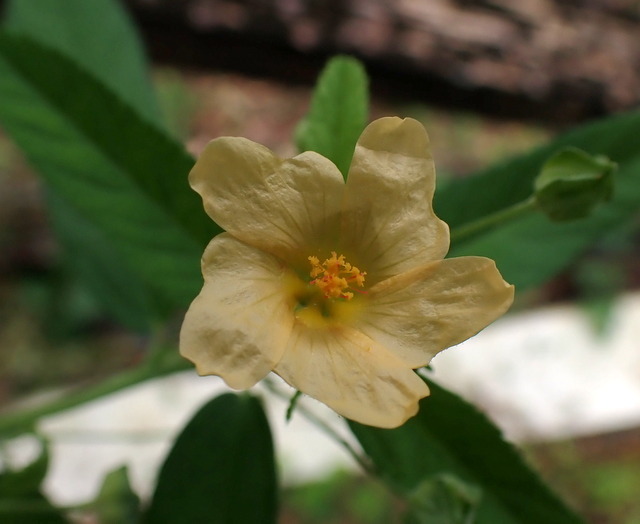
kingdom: Plantae
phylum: Tracheophyta
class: Magnoliopsida
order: Malvales
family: Malvaceae
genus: Sida
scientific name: Sida rhombifolia
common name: Queensland-hemp
